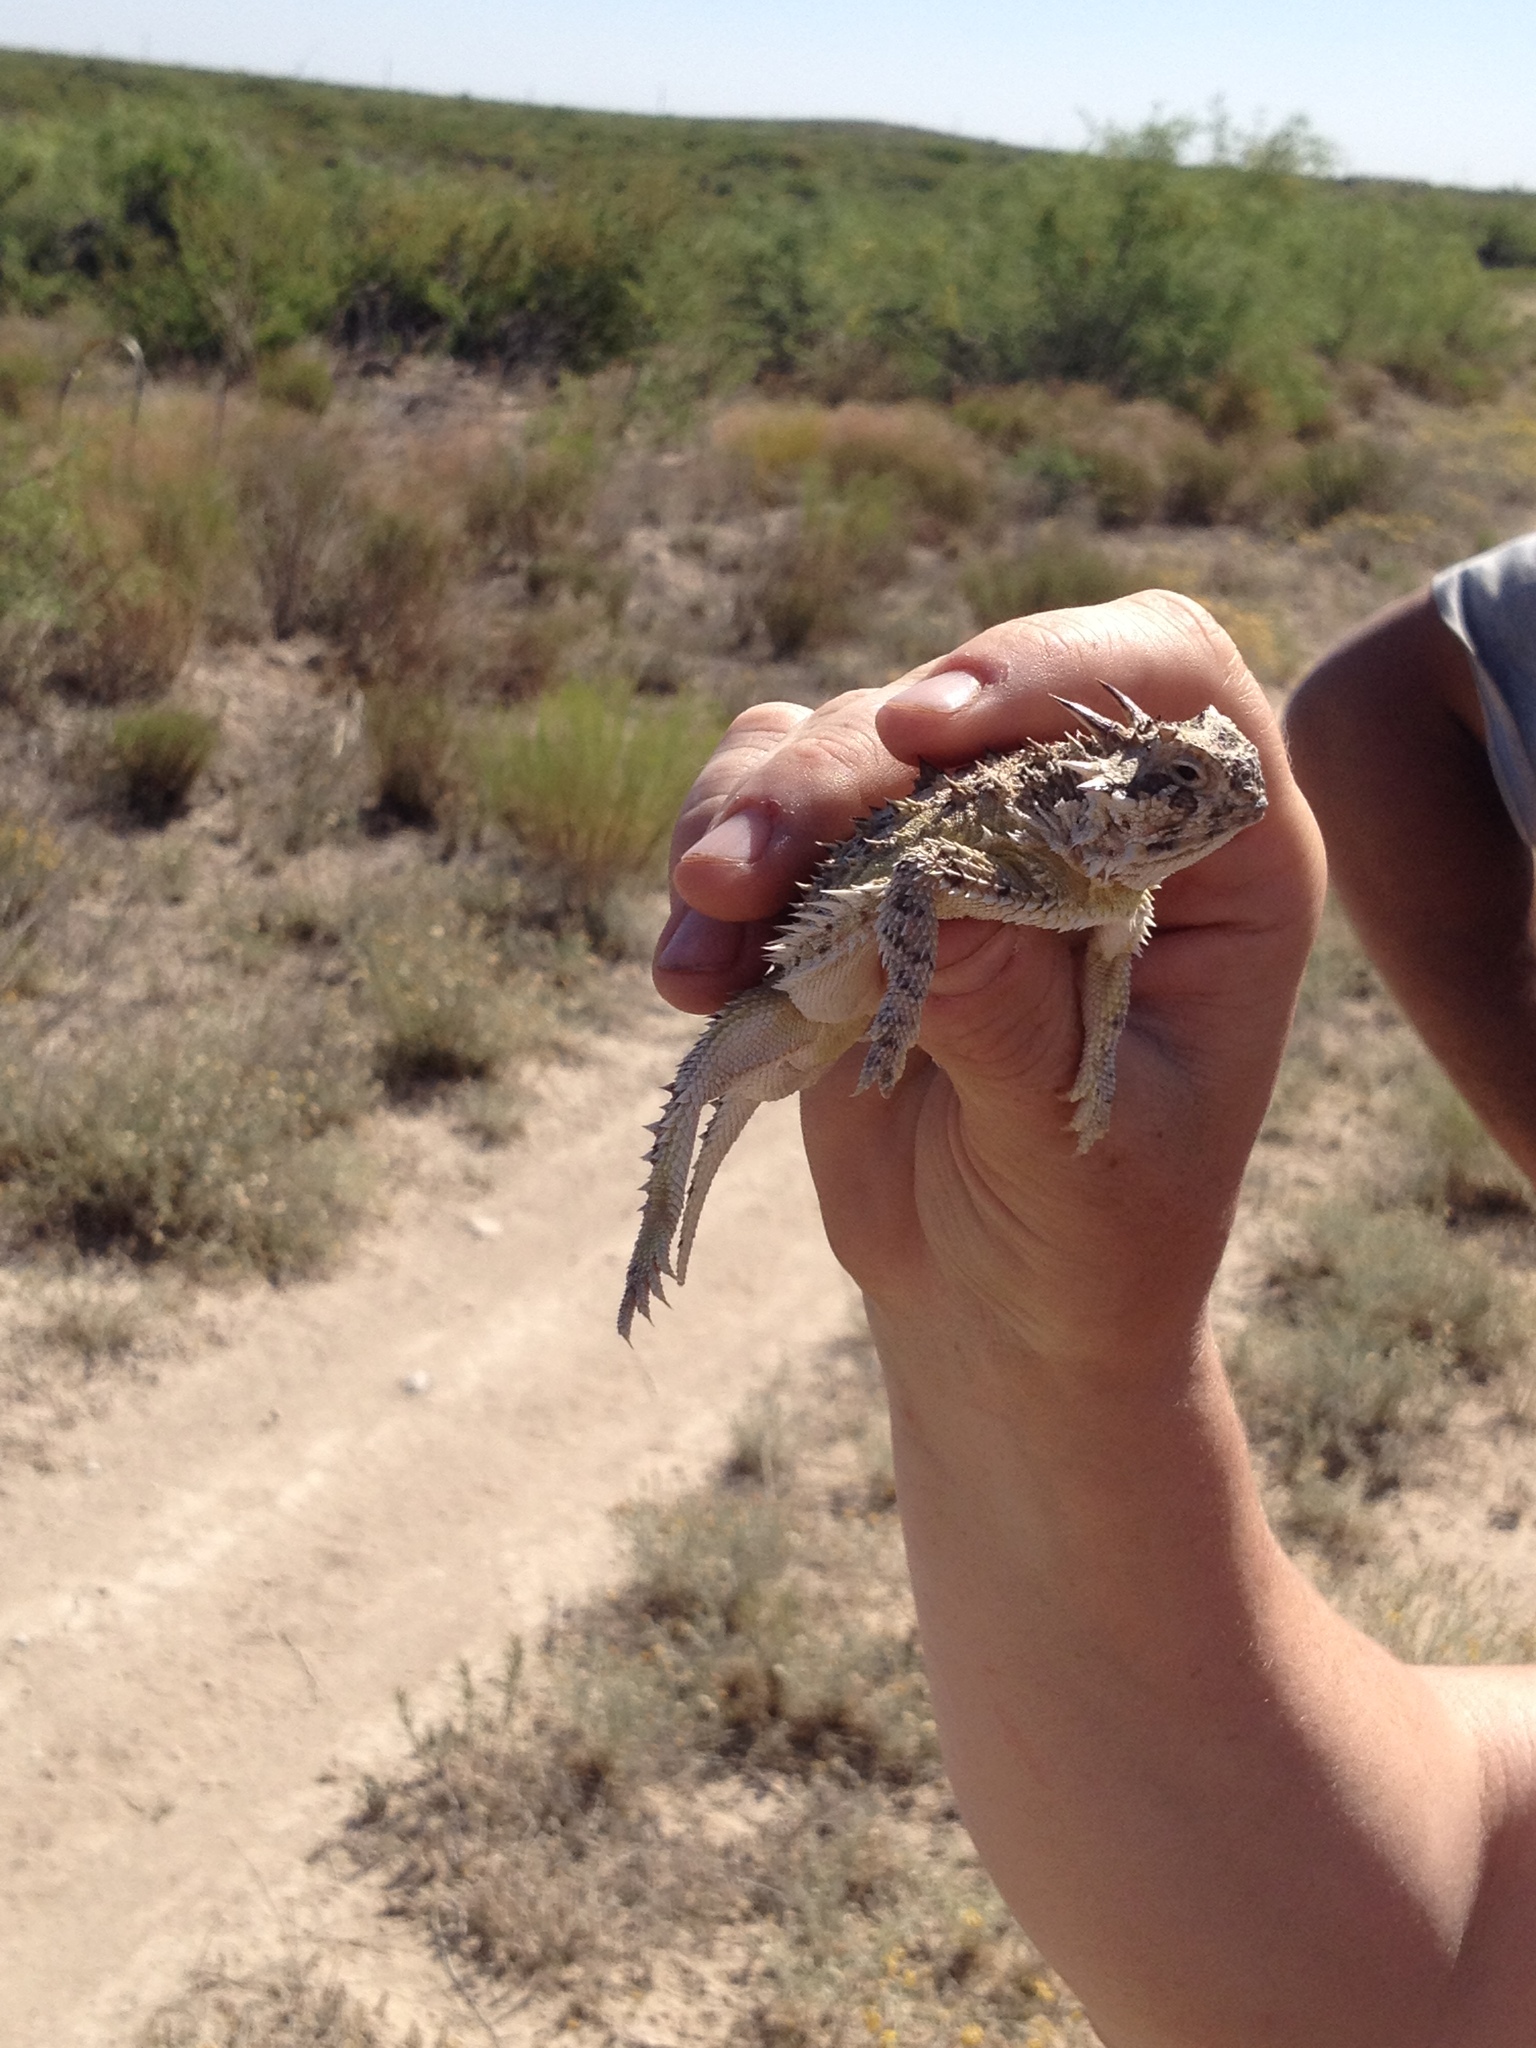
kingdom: Animalia
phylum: Chordata
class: Squamata
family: Phrynosomatidae
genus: Phrynosoma
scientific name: Phrynosoma cornutum
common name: Texas horned lizard
